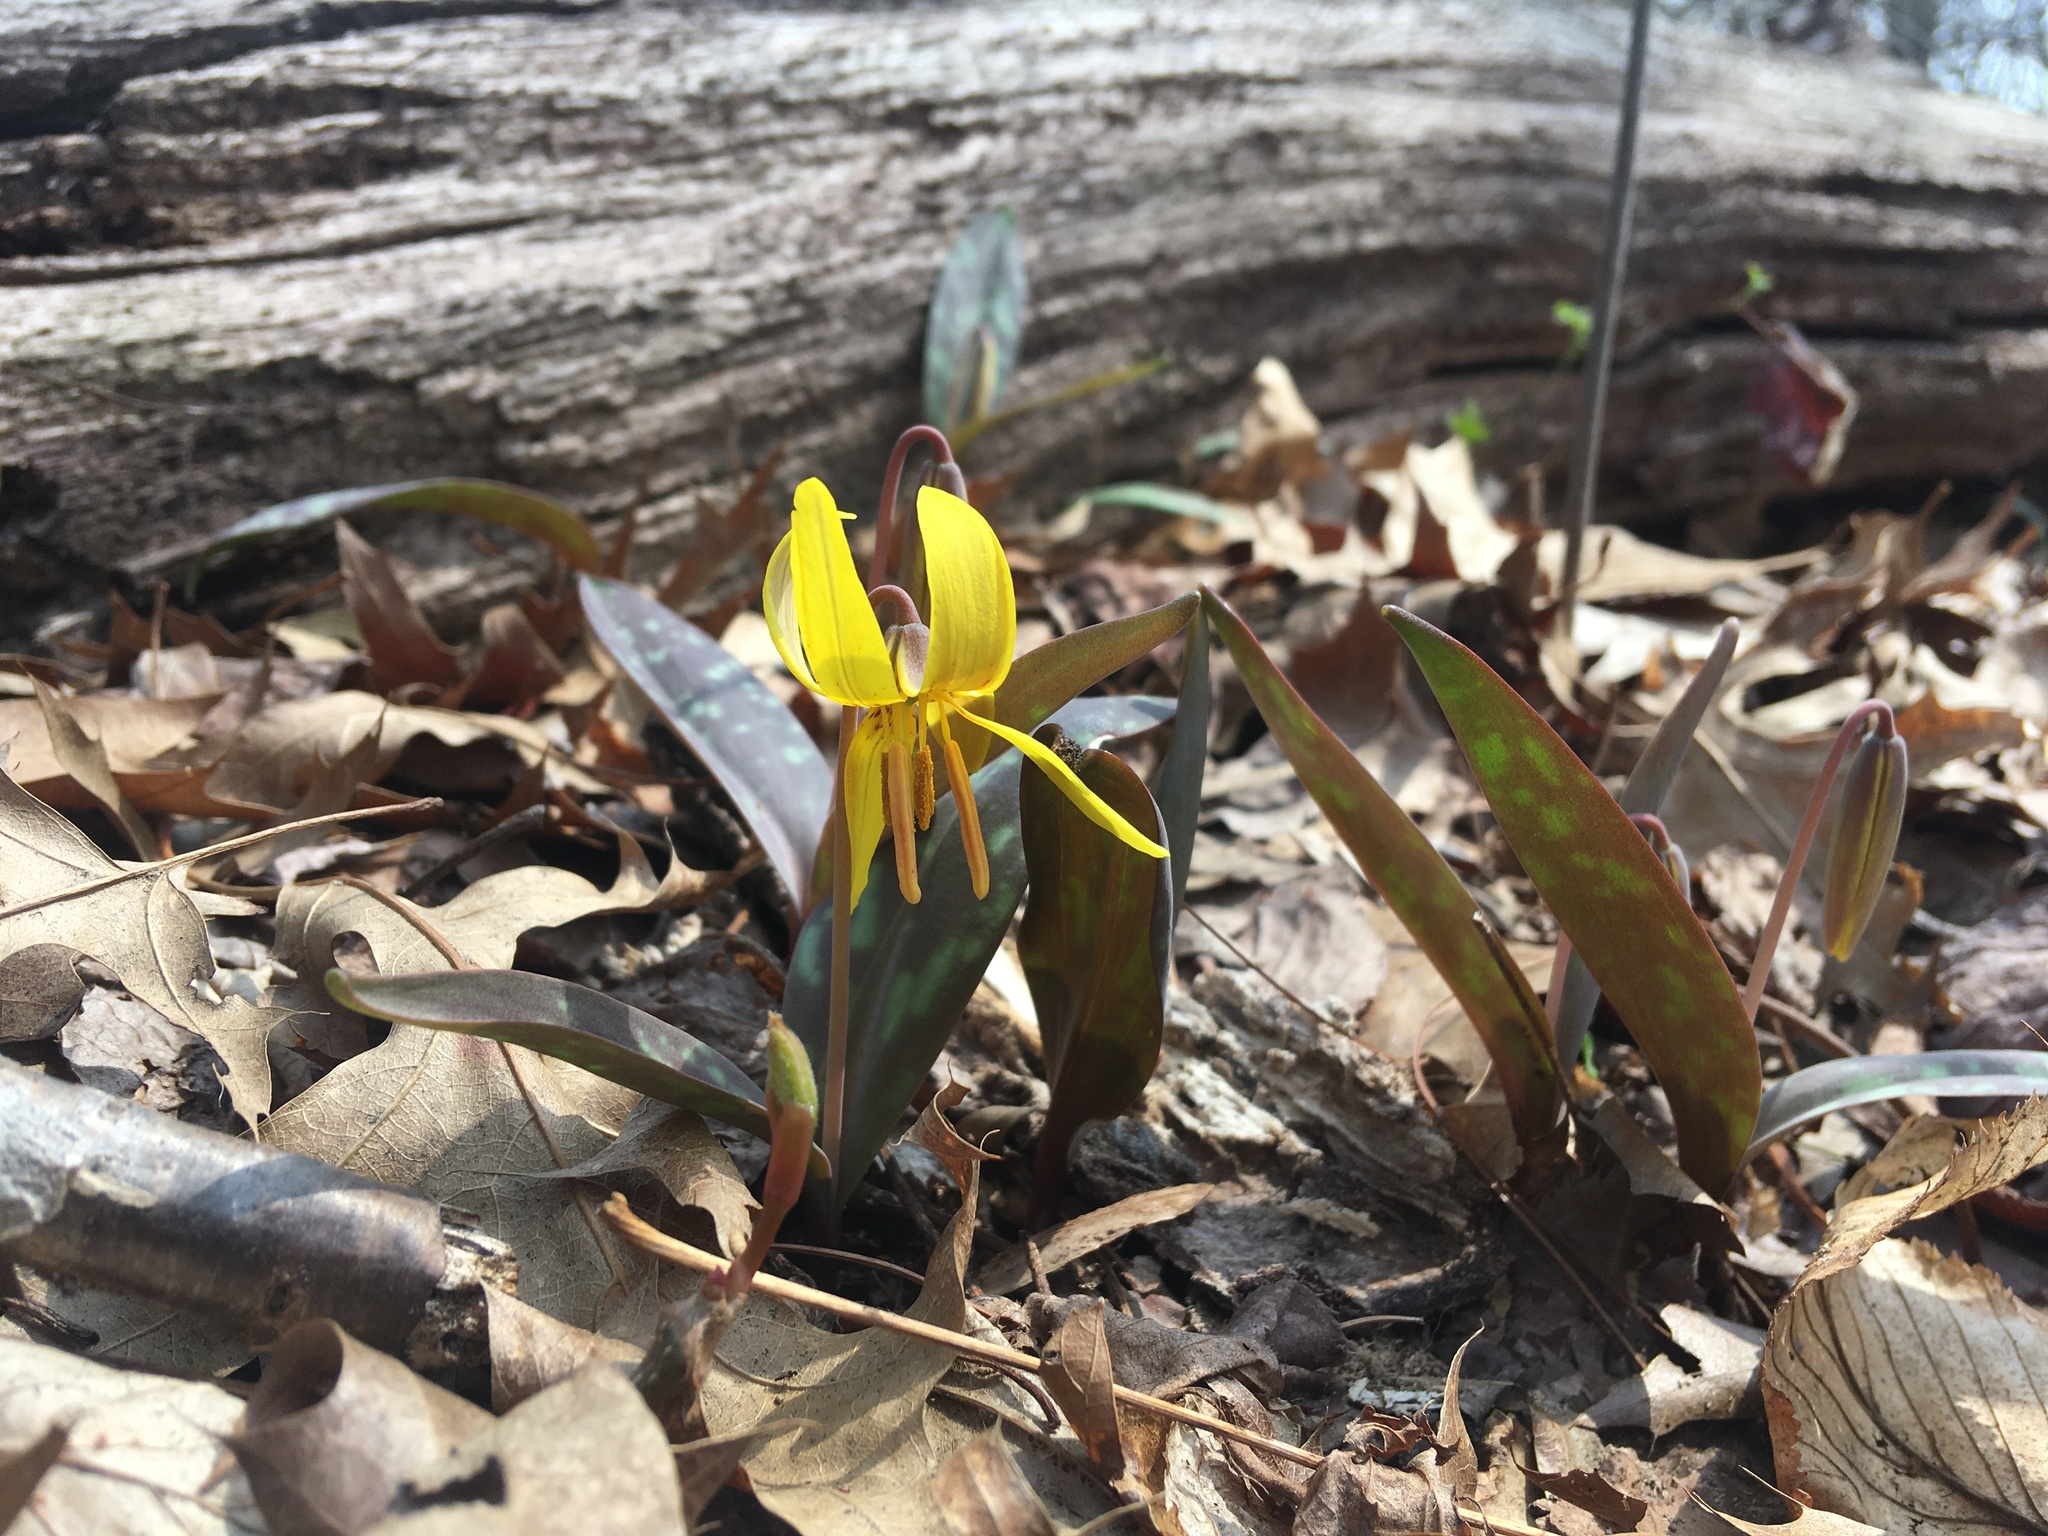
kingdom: Plantae
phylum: Tracheophyta
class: Liliopsida
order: Liliales
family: Liliaceae
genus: Erythronium
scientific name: Erythronium americanum
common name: Yellow adder's-tongue
